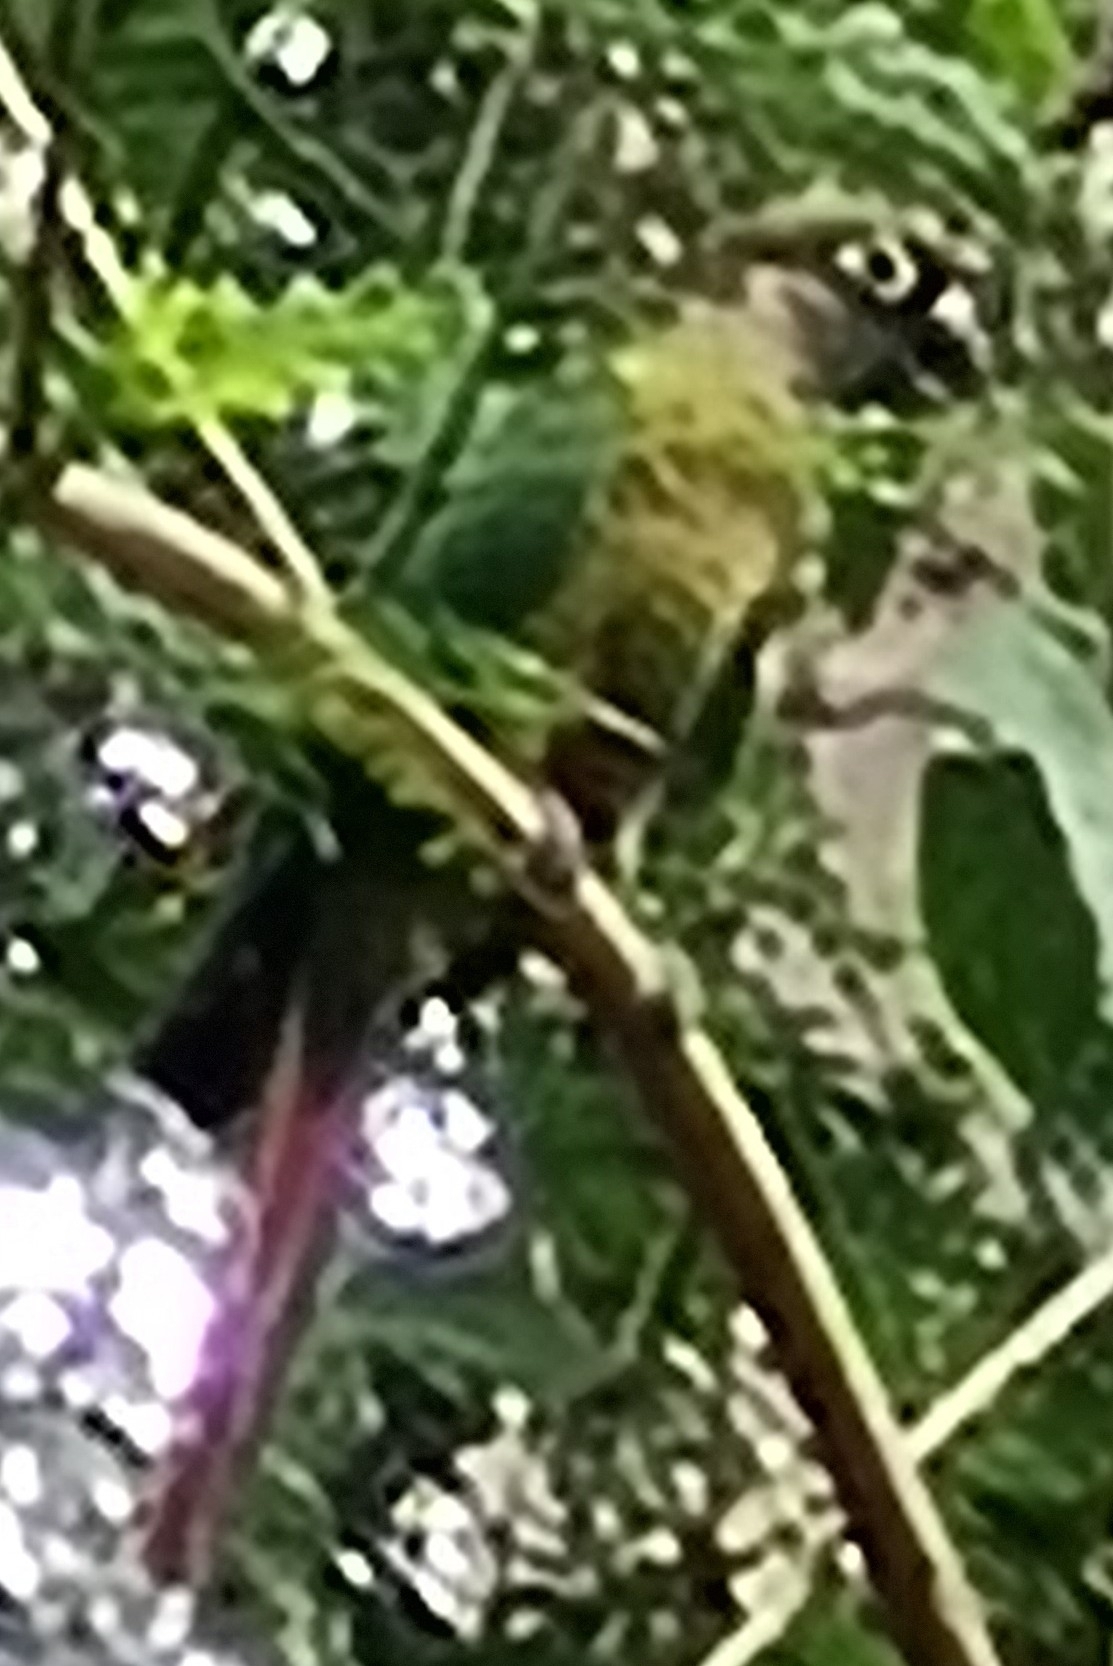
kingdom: Animalia
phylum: Chordata
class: Aves
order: Psittaciformes
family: Psittacidae
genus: Pyrrhura
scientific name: Pyrrhura frontalis
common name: Maroon-bellied parakeet
